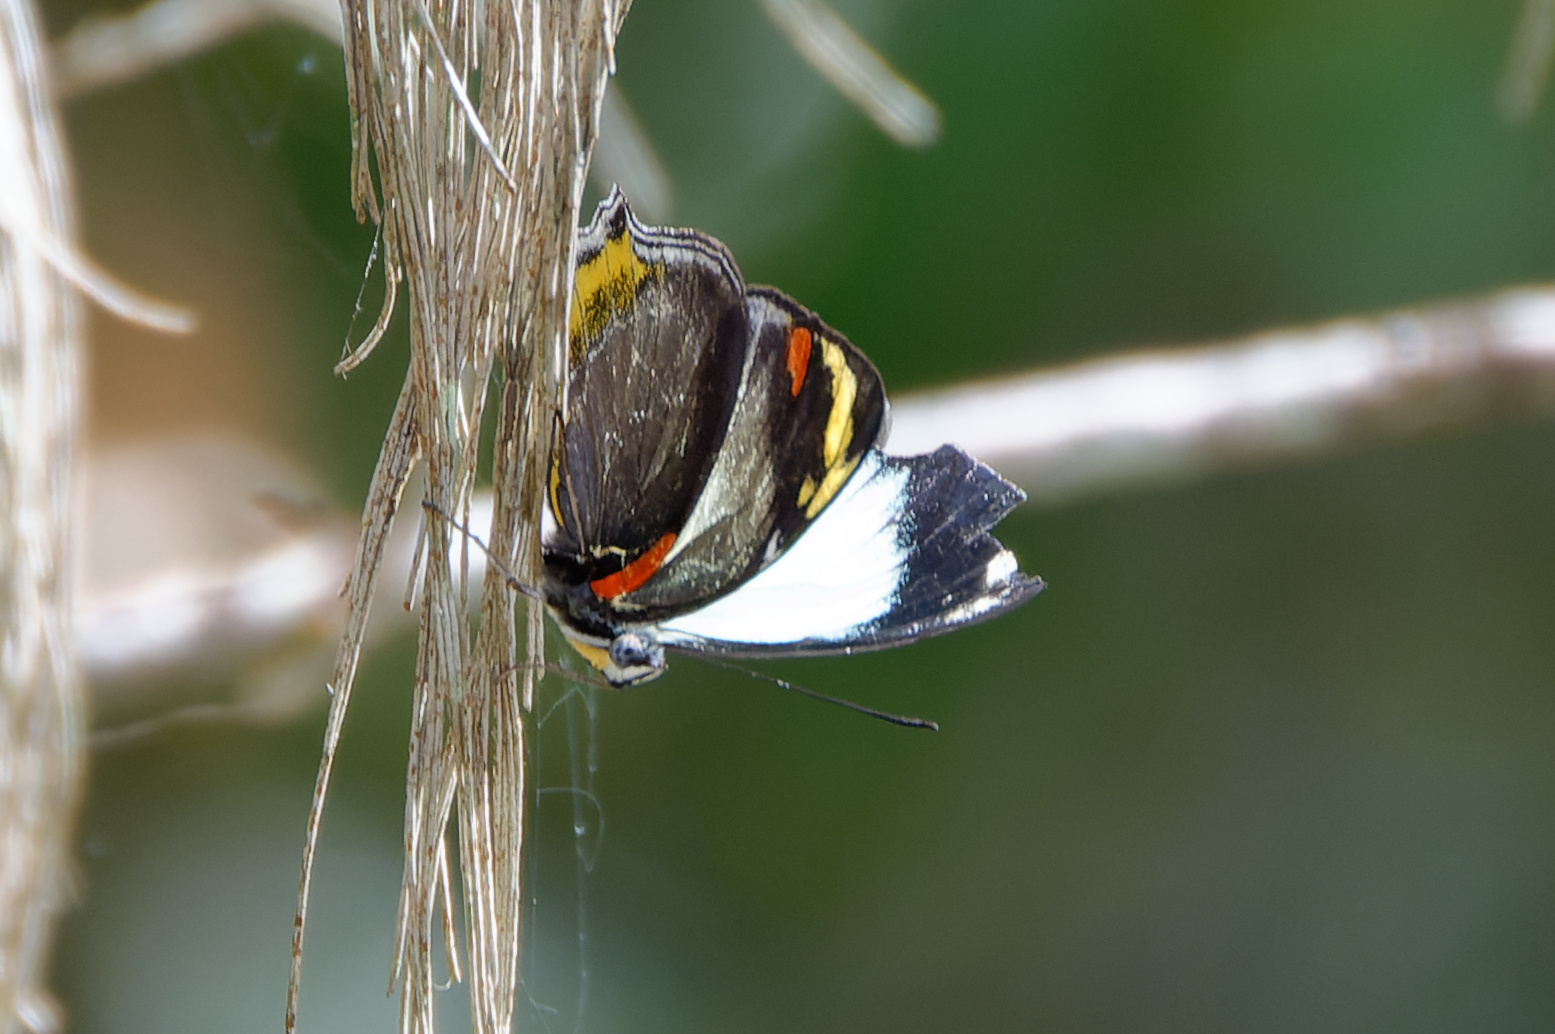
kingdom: Animalia
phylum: Arthropoda
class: Insecta
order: Lepidoptera
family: Nymphalidae
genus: Mynes
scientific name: Mynes geoffroyi
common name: Jezebel nymph
